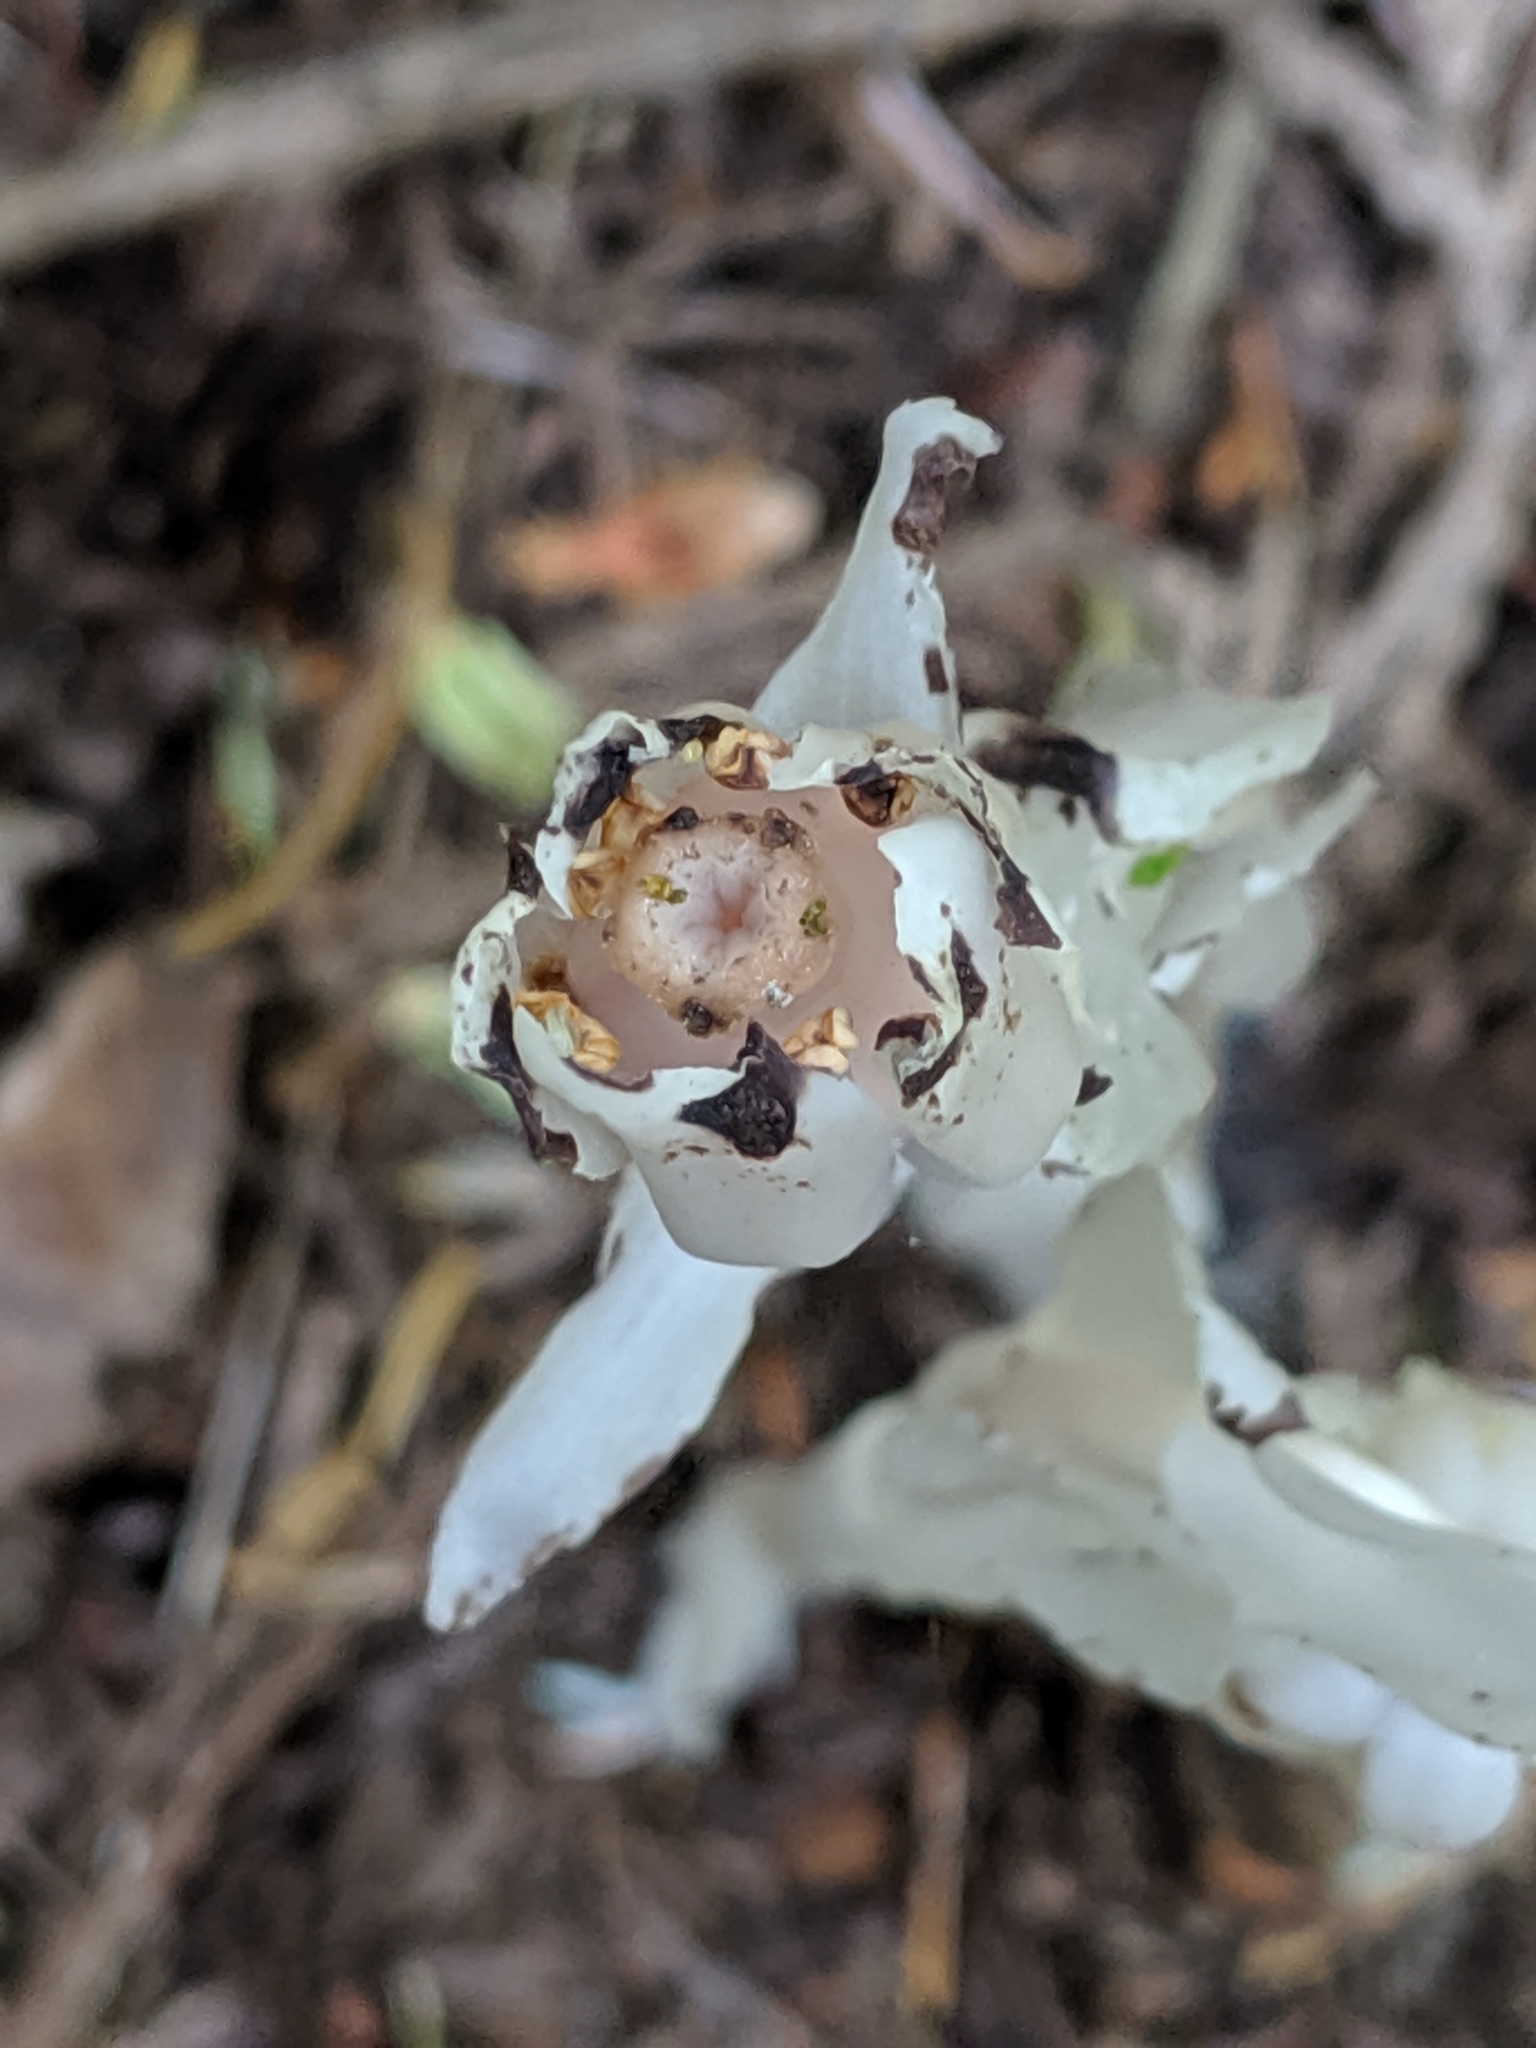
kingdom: Plantae
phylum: Tracheophyta
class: Magnoliopsida
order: Ericales
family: Ericaceae
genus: Monotropa
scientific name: Monotropa uniflora
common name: Convulsion root
